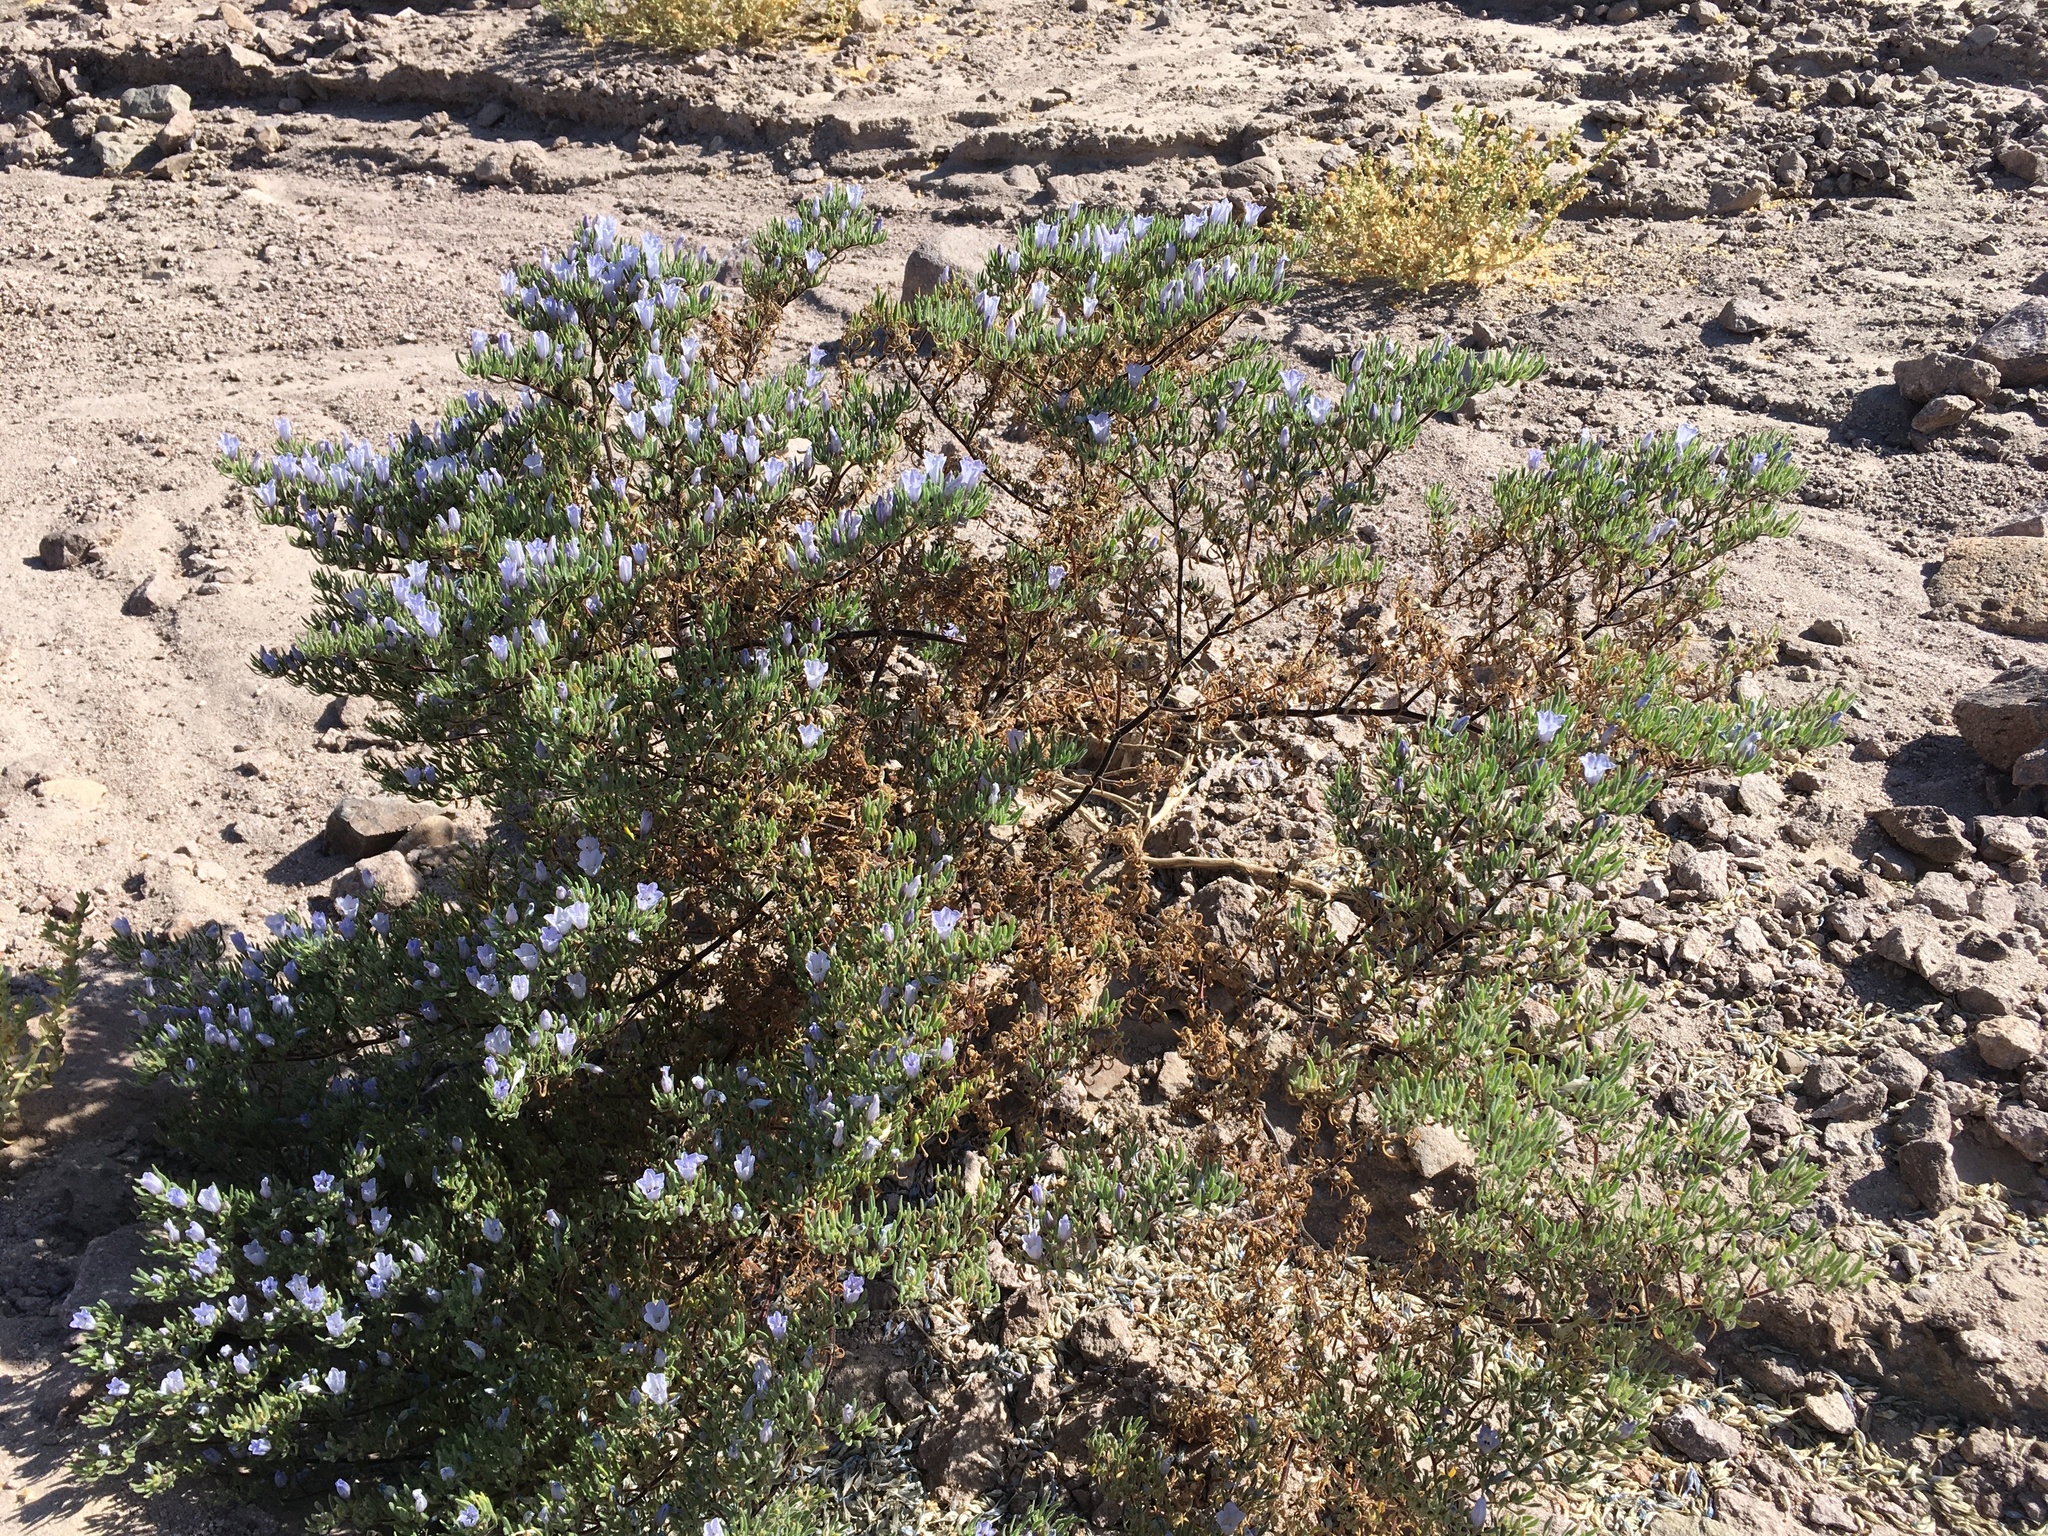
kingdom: Plantae
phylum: Tracheophyta
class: Magnoliopsida
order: Solanales
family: Solanaceae
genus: Nolana
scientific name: Nolana rhombifolia
